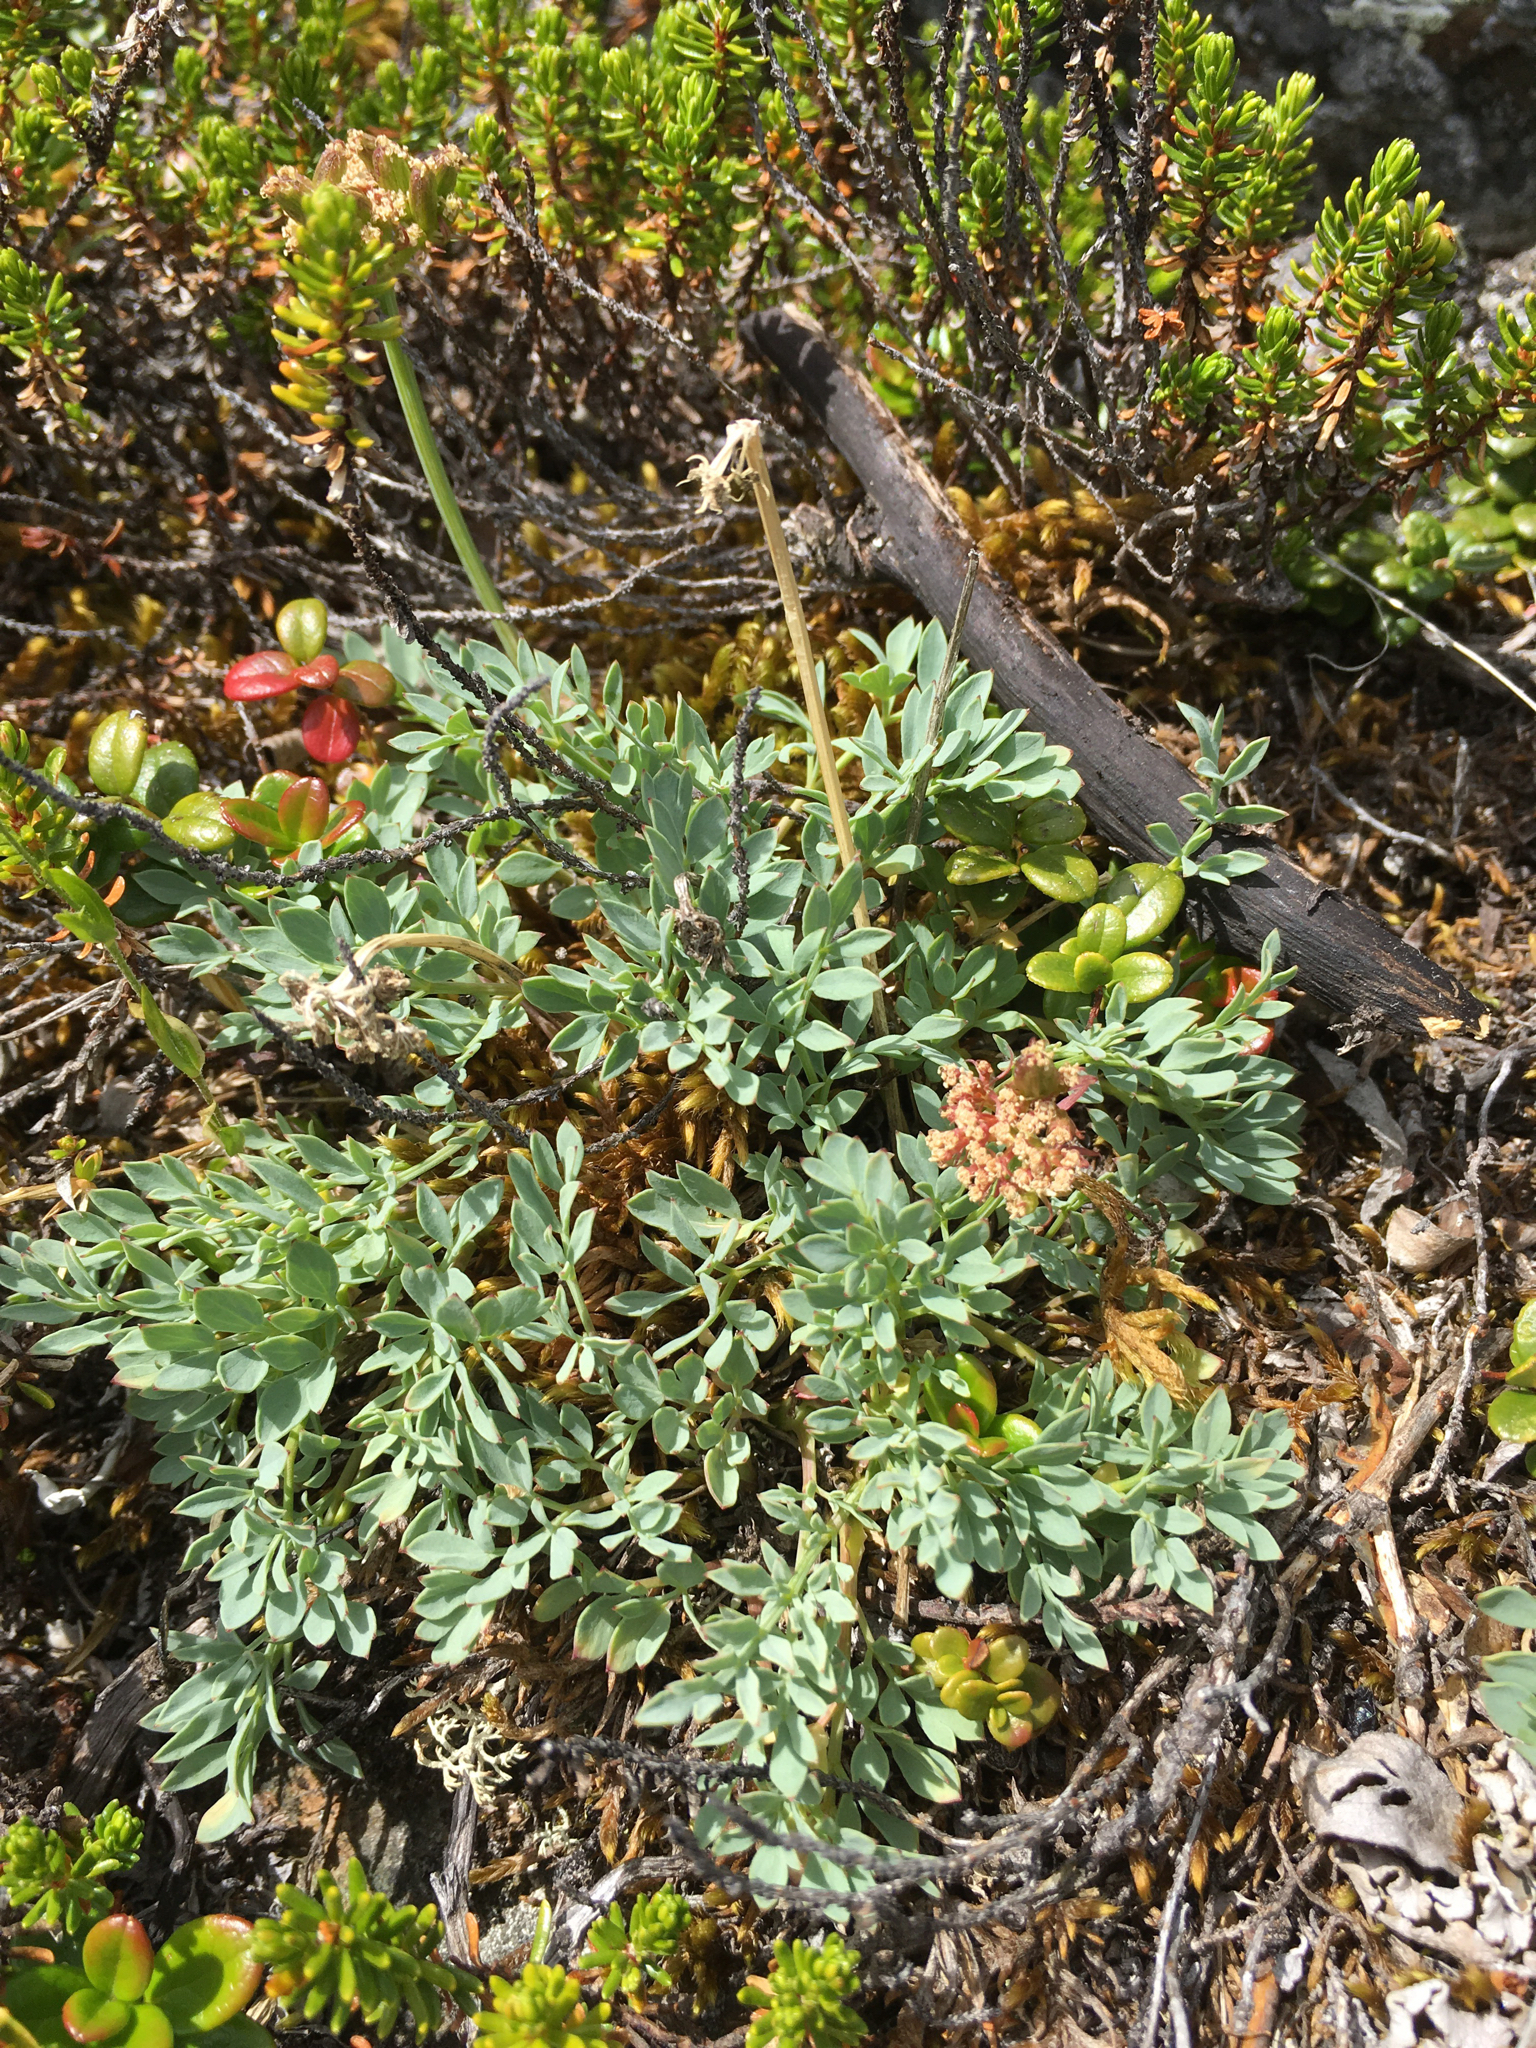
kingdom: Plantae
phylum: Tracheophyta
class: Magnoliopsida
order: Apiales
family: Apiaceae
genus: Podistera
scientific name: Podistera yukonensis
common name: Yukon podistera
